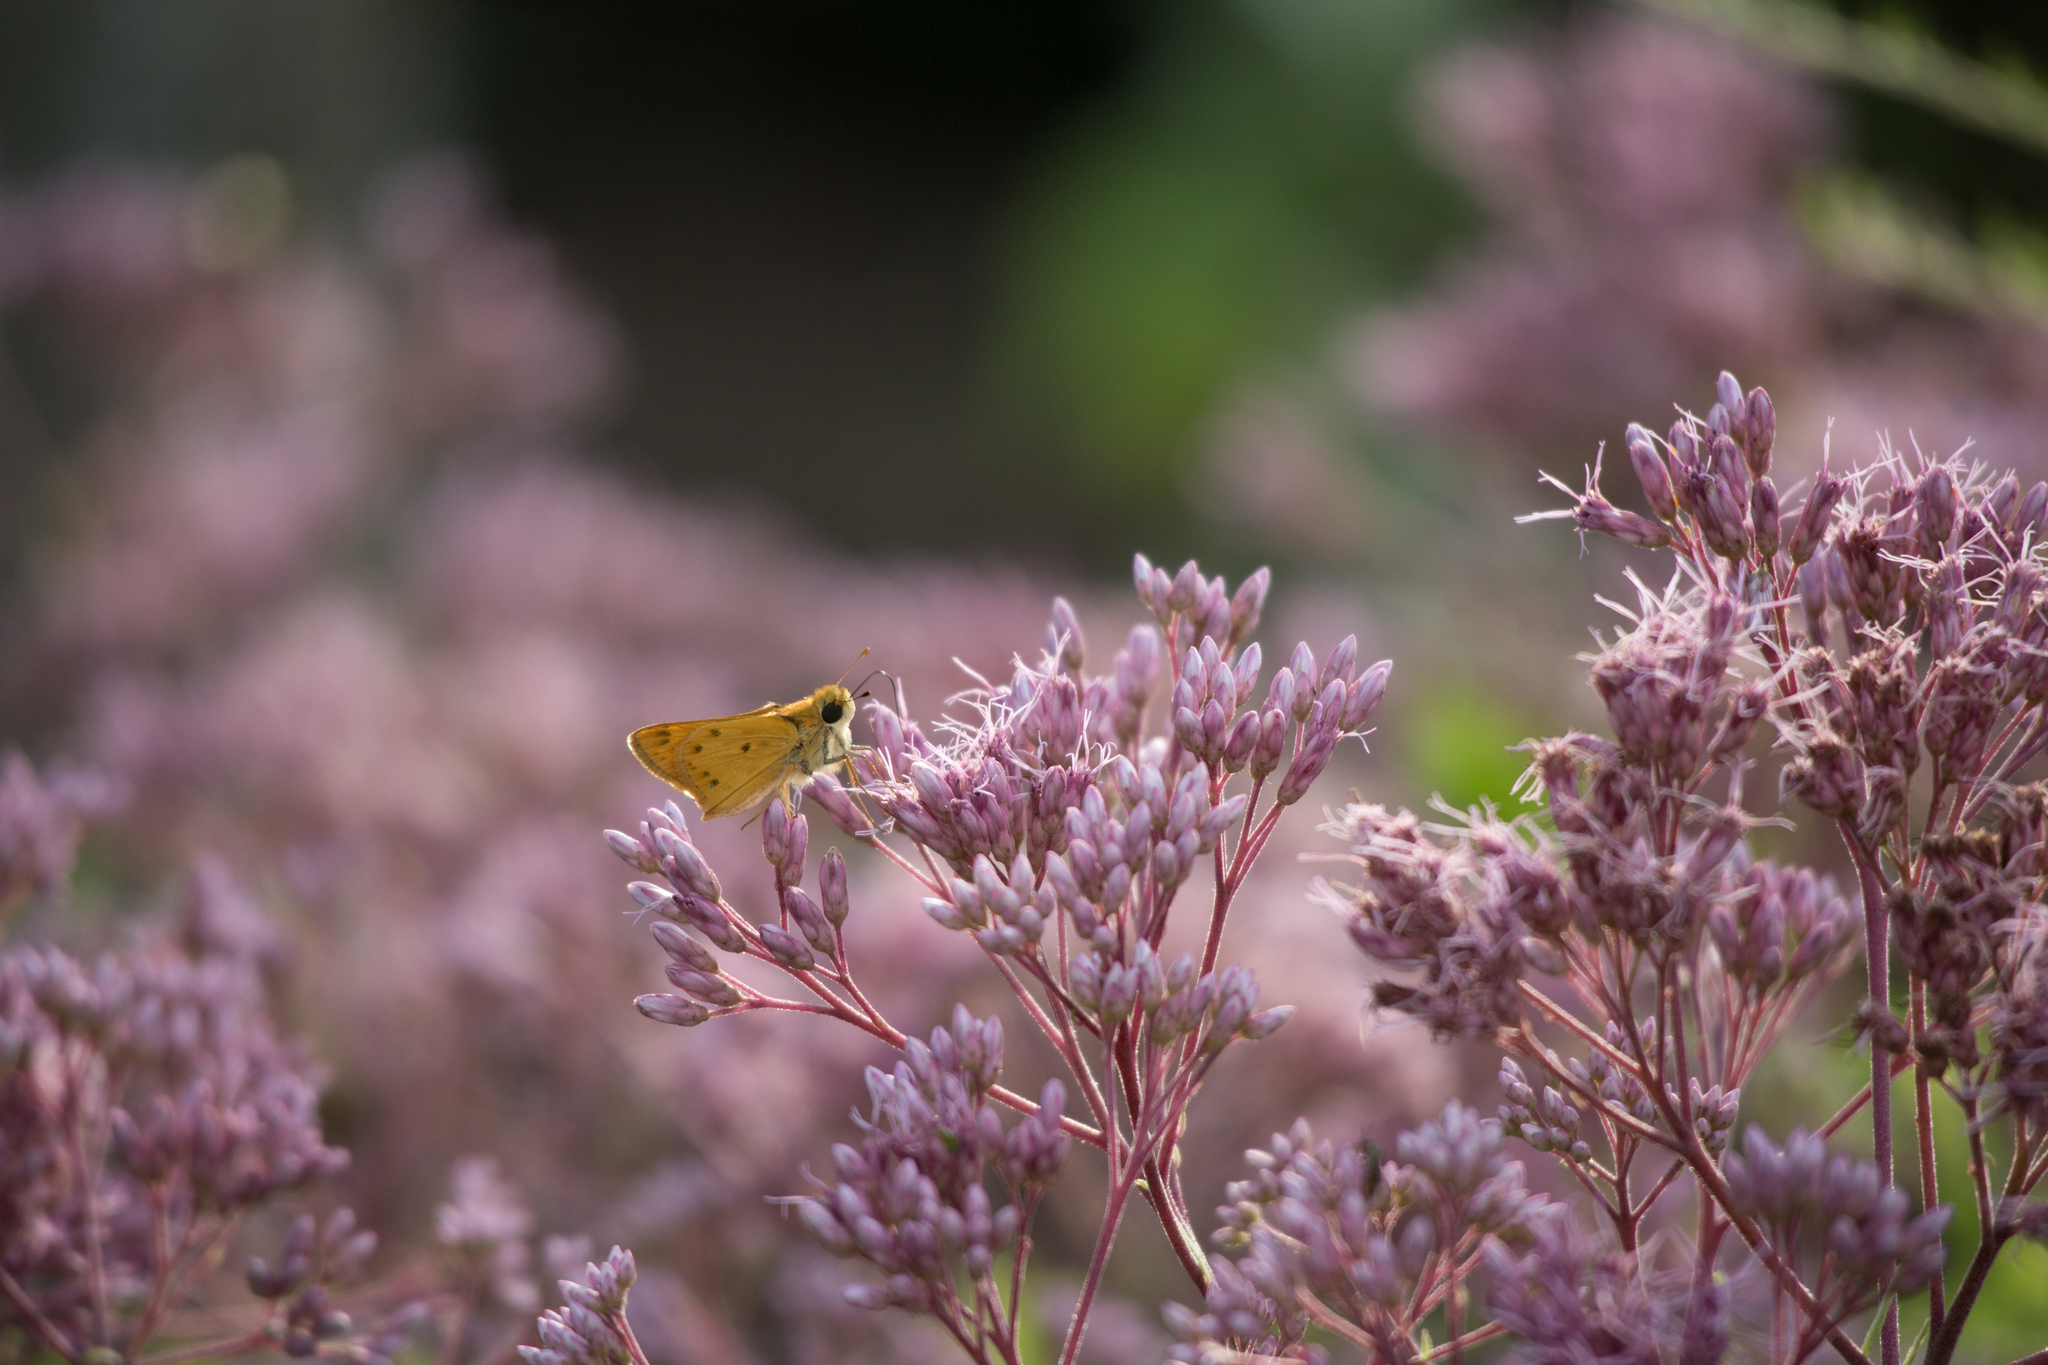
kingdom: Animalia
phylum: Arthropoda
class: Insecta
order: Lepidoptera
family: Hesperiidae
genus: Hylephila
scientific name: Hylephila phyleus
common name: Fiery skipper
